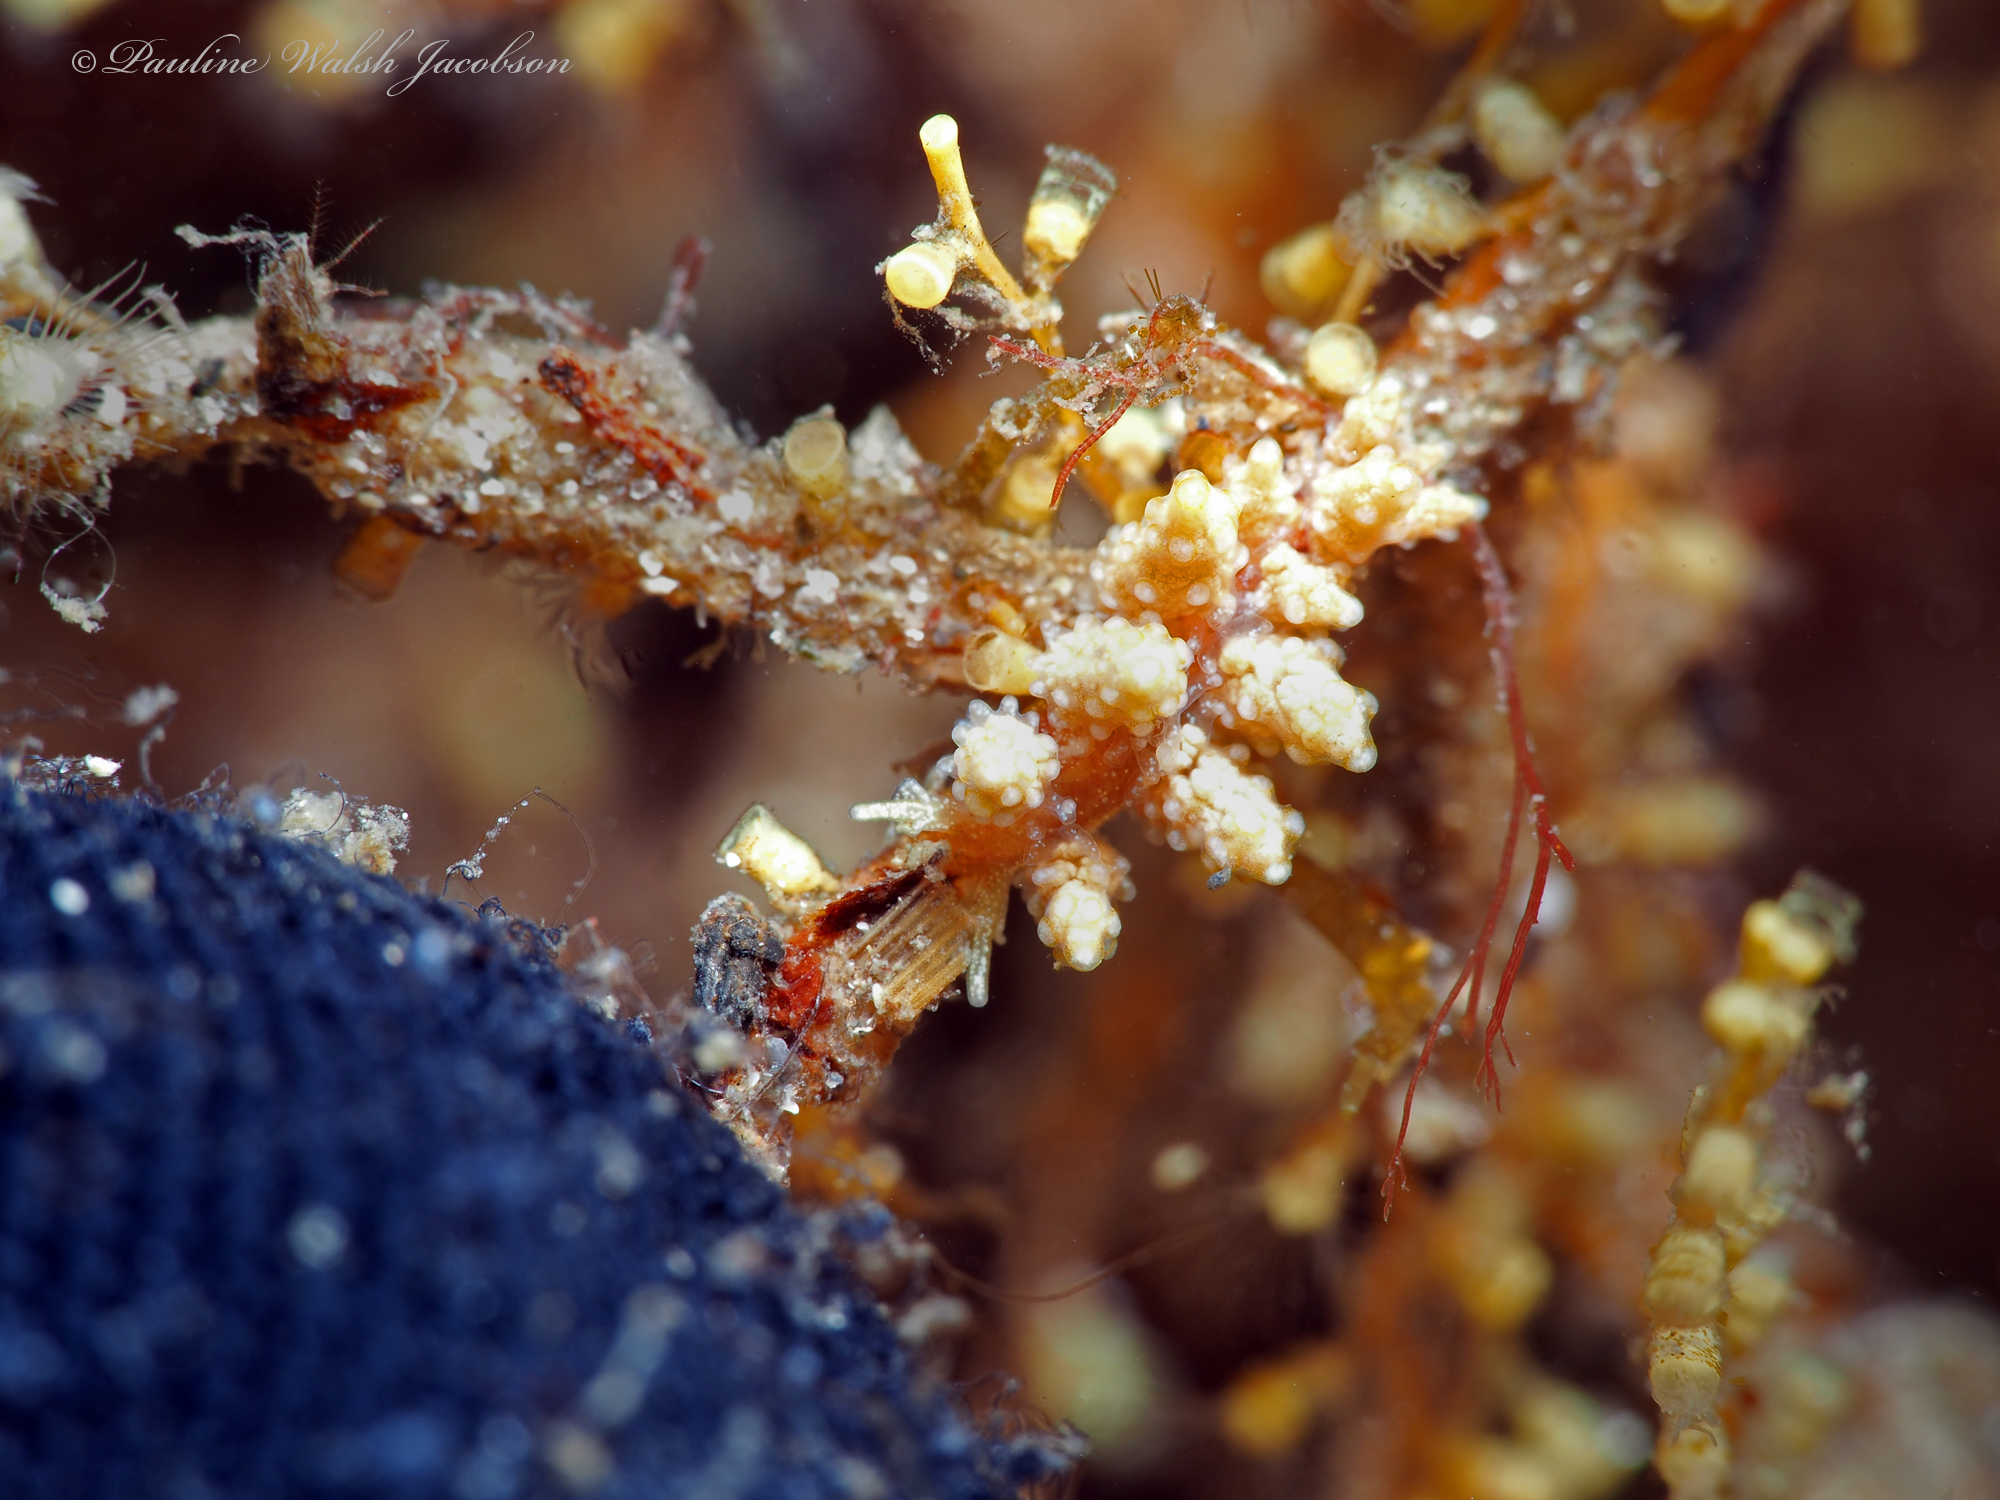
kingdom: Animalia
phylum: Mollusca
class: Gastropoda
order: Nudibranchia
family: Dotidae
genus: Doto
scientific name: Doto torrelavega
